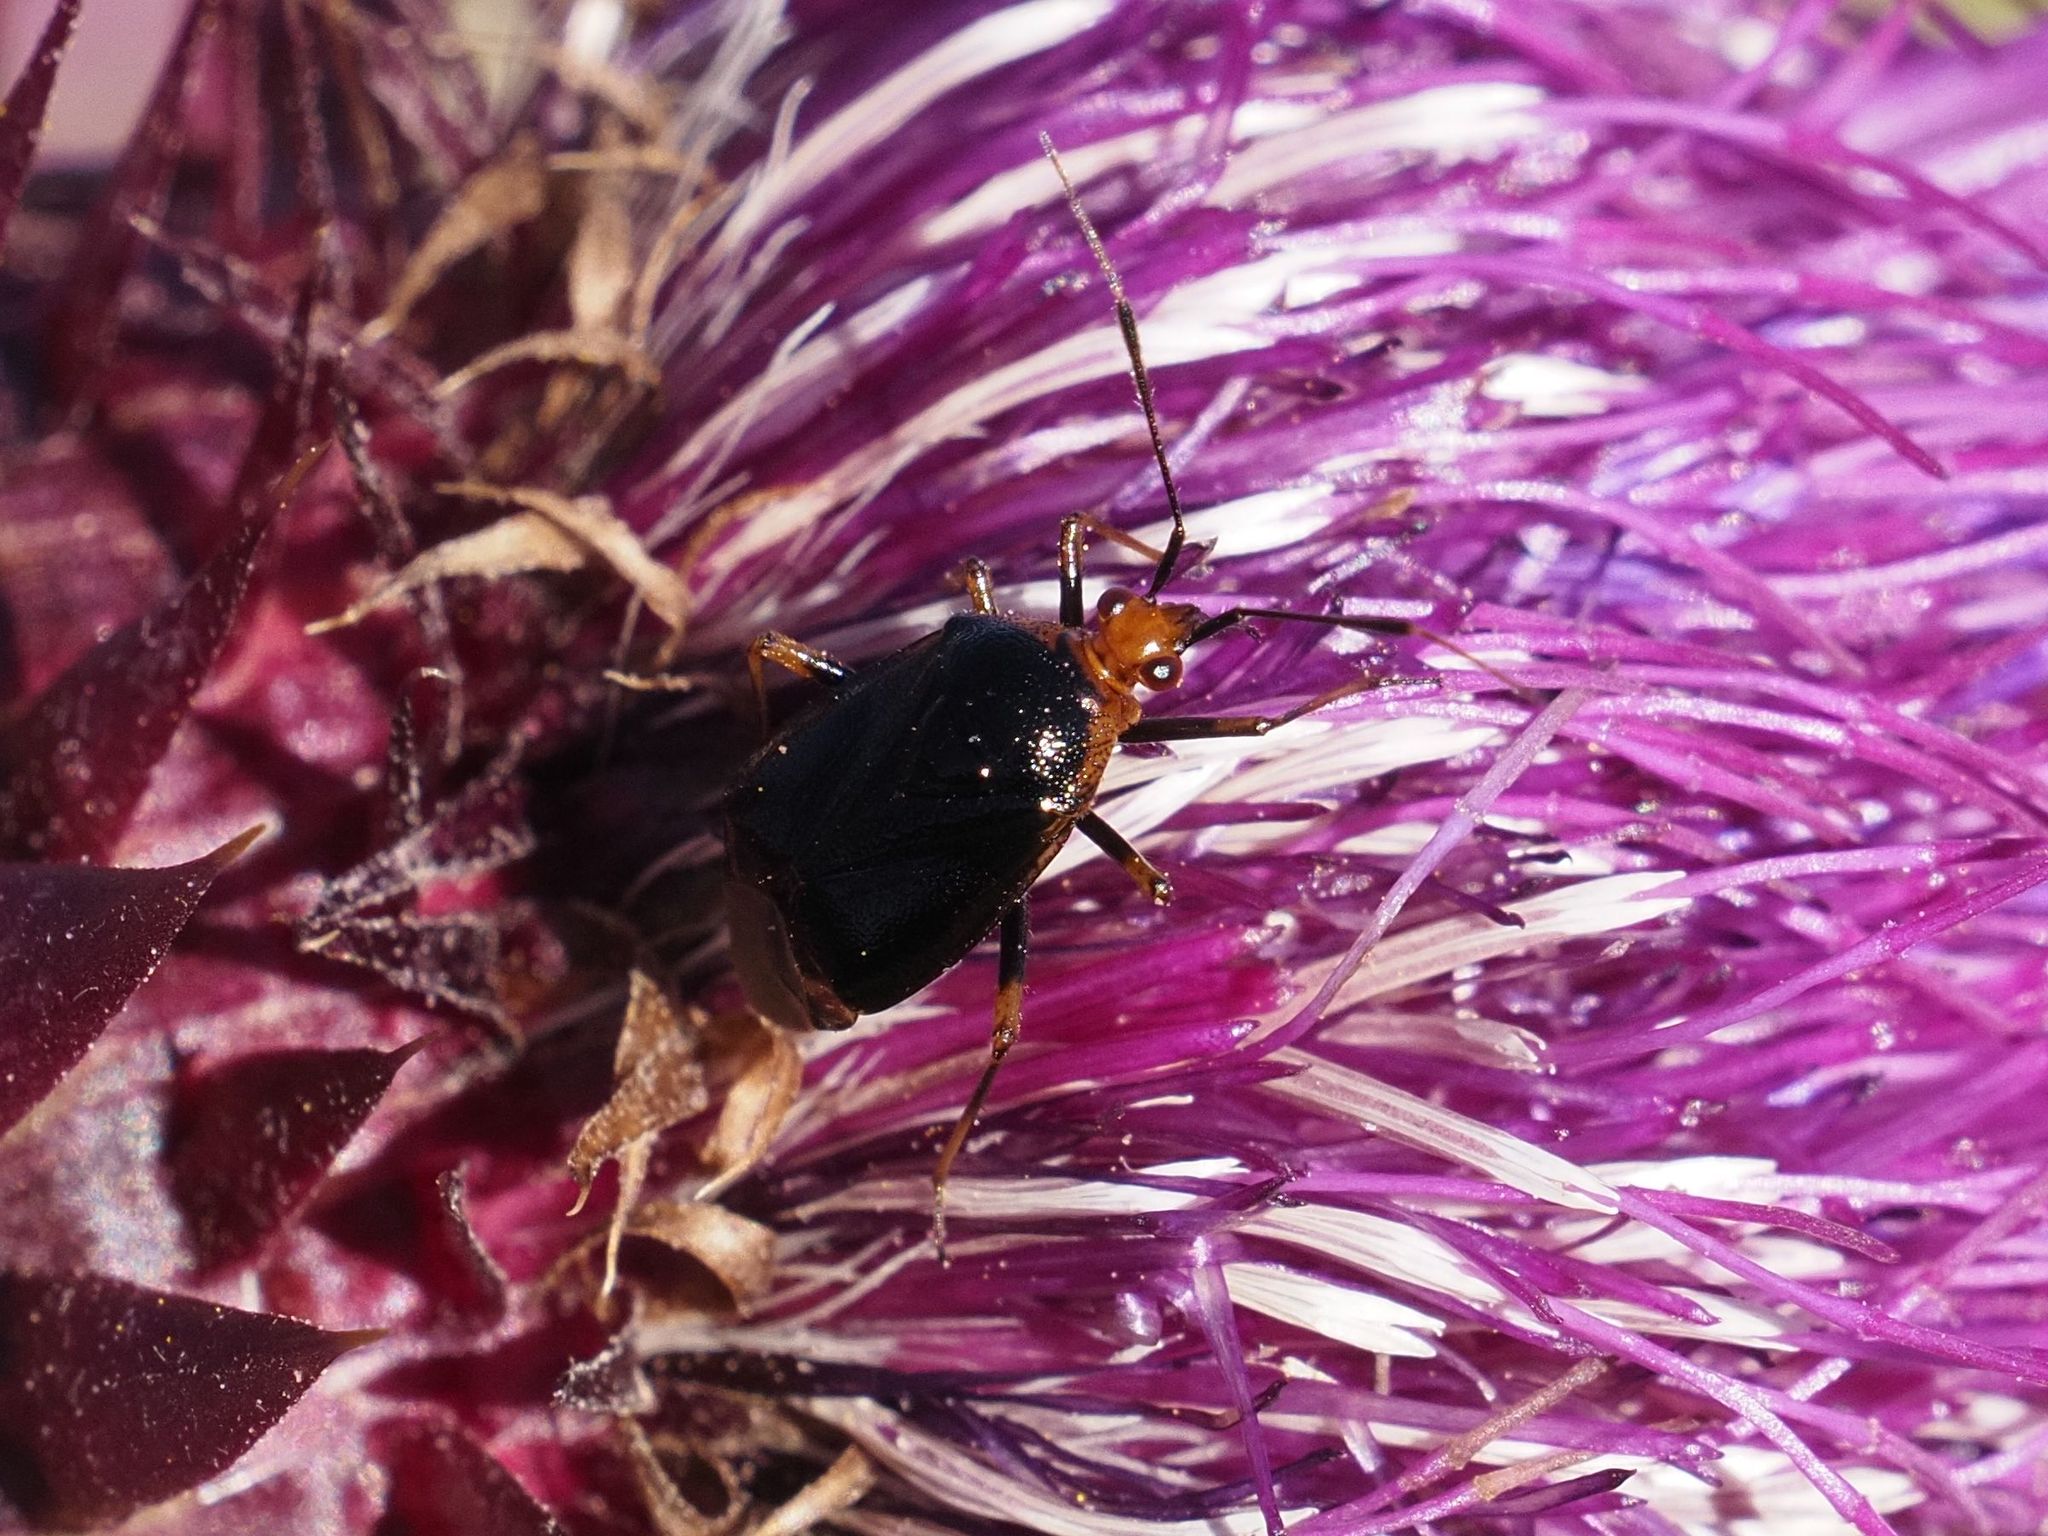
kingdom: Animalia
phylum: Arthropoda
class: Insecta
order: Hemiptera
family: Miridae
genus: Deraeocoris
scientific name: Deraeocoris ruber
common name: Plant bug
